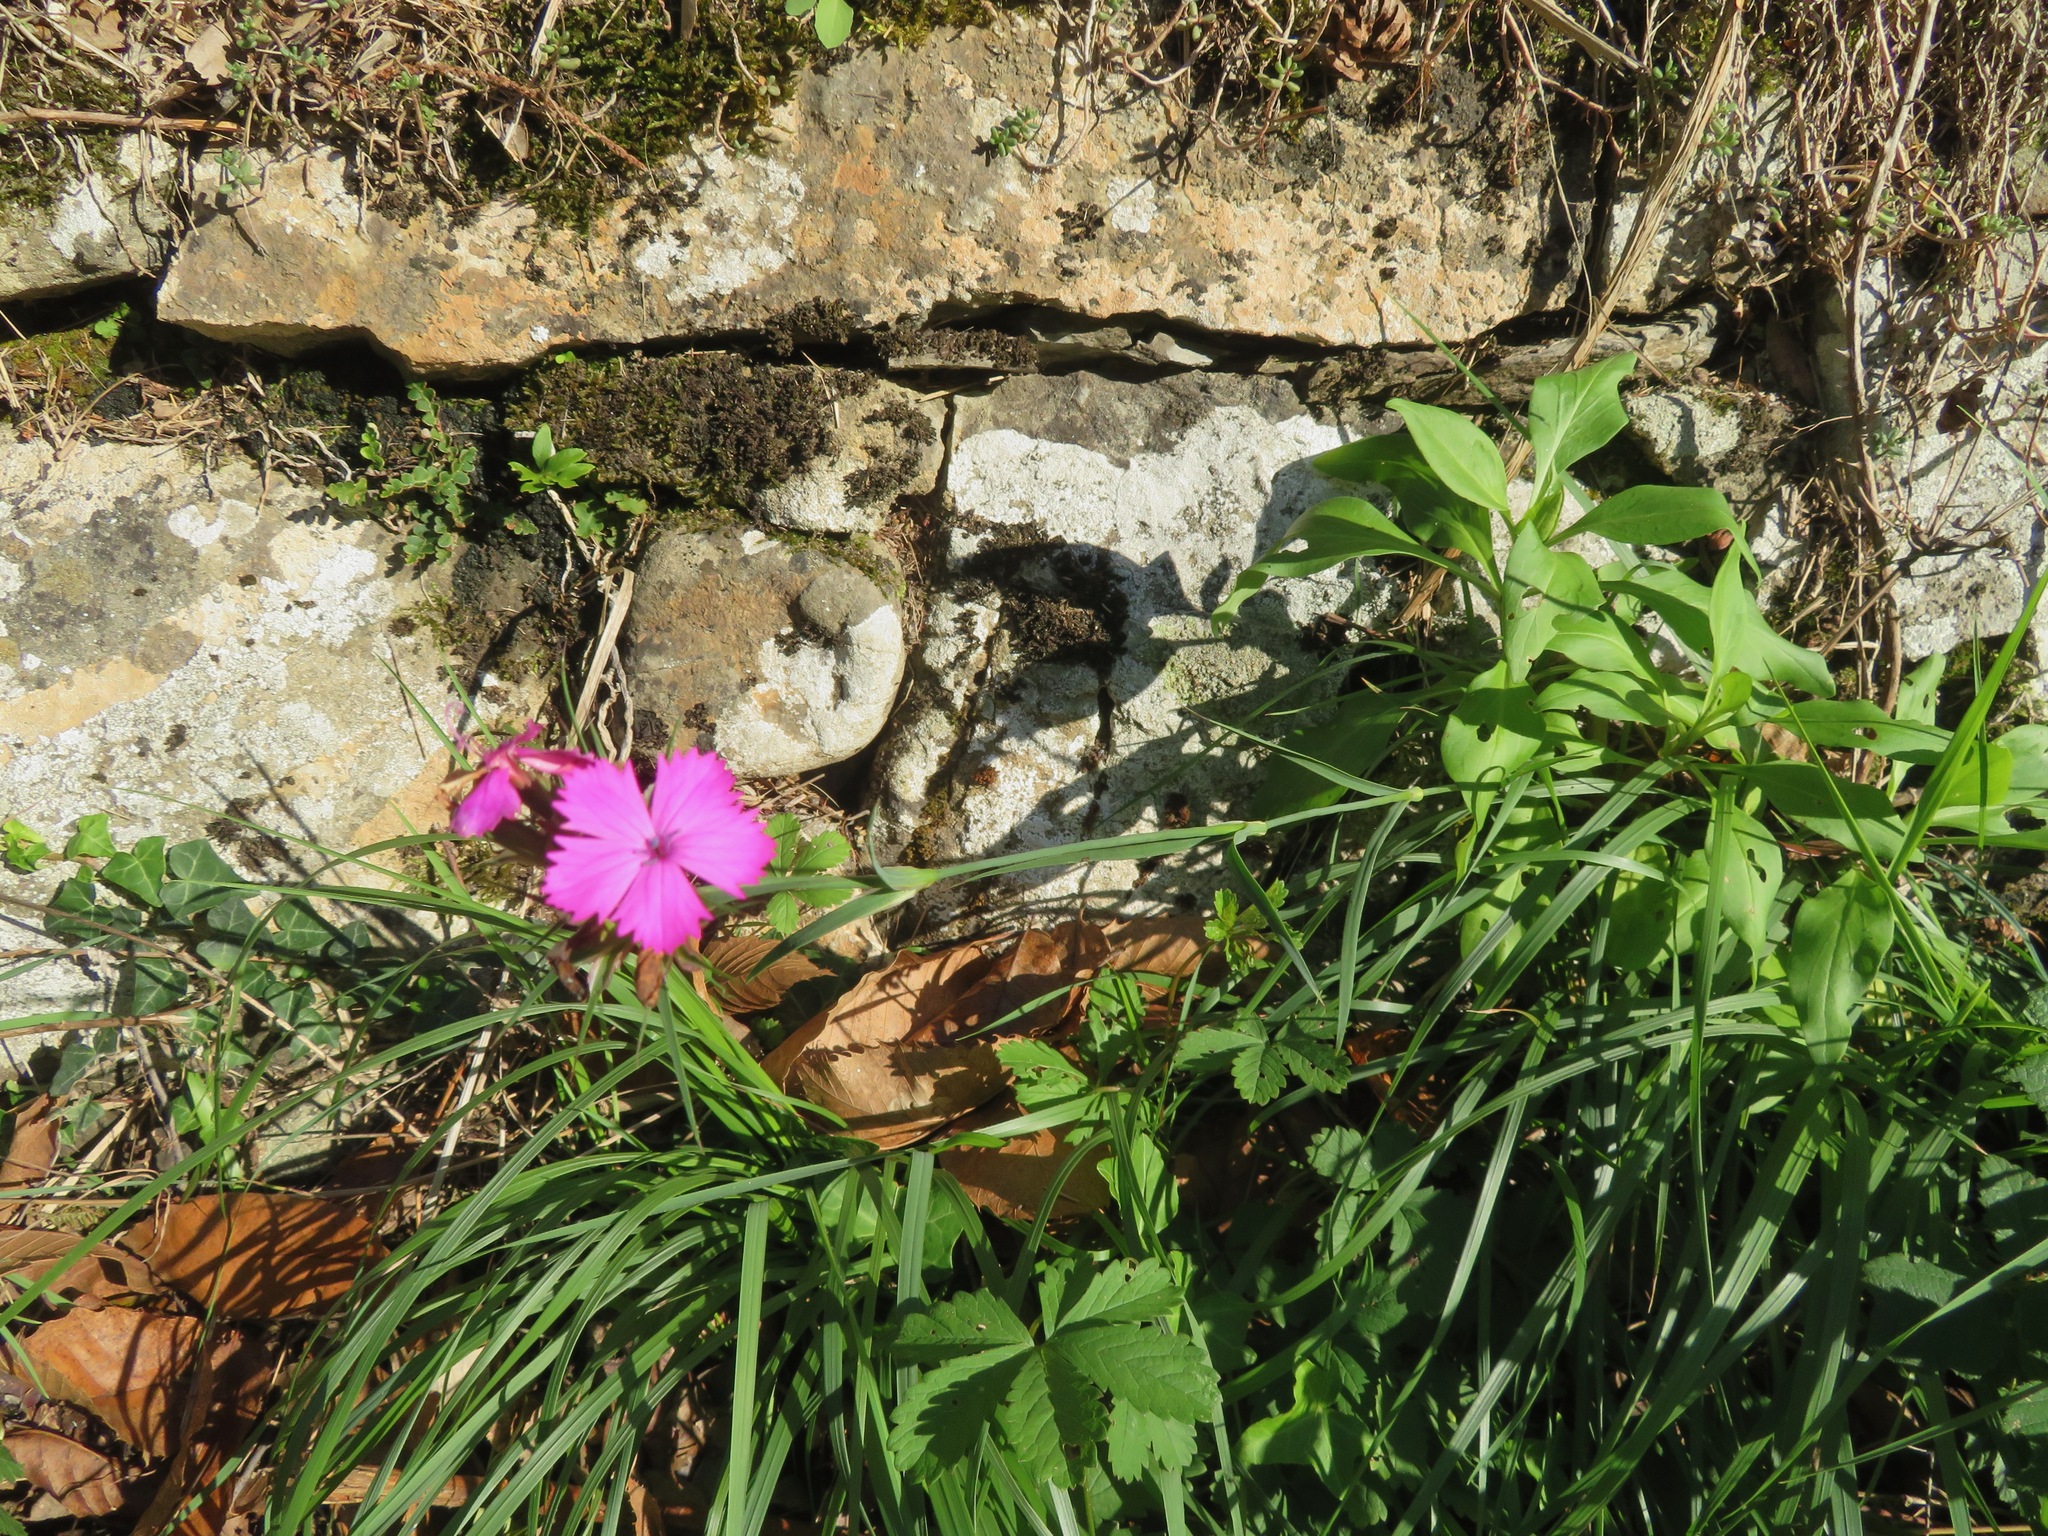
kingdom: Plantae
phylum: Tracheophyta
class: Magnoliopsida
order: Caryophyllales
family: Caryophyllaceae
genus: Dianthus
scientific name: Dianthus balbisii
